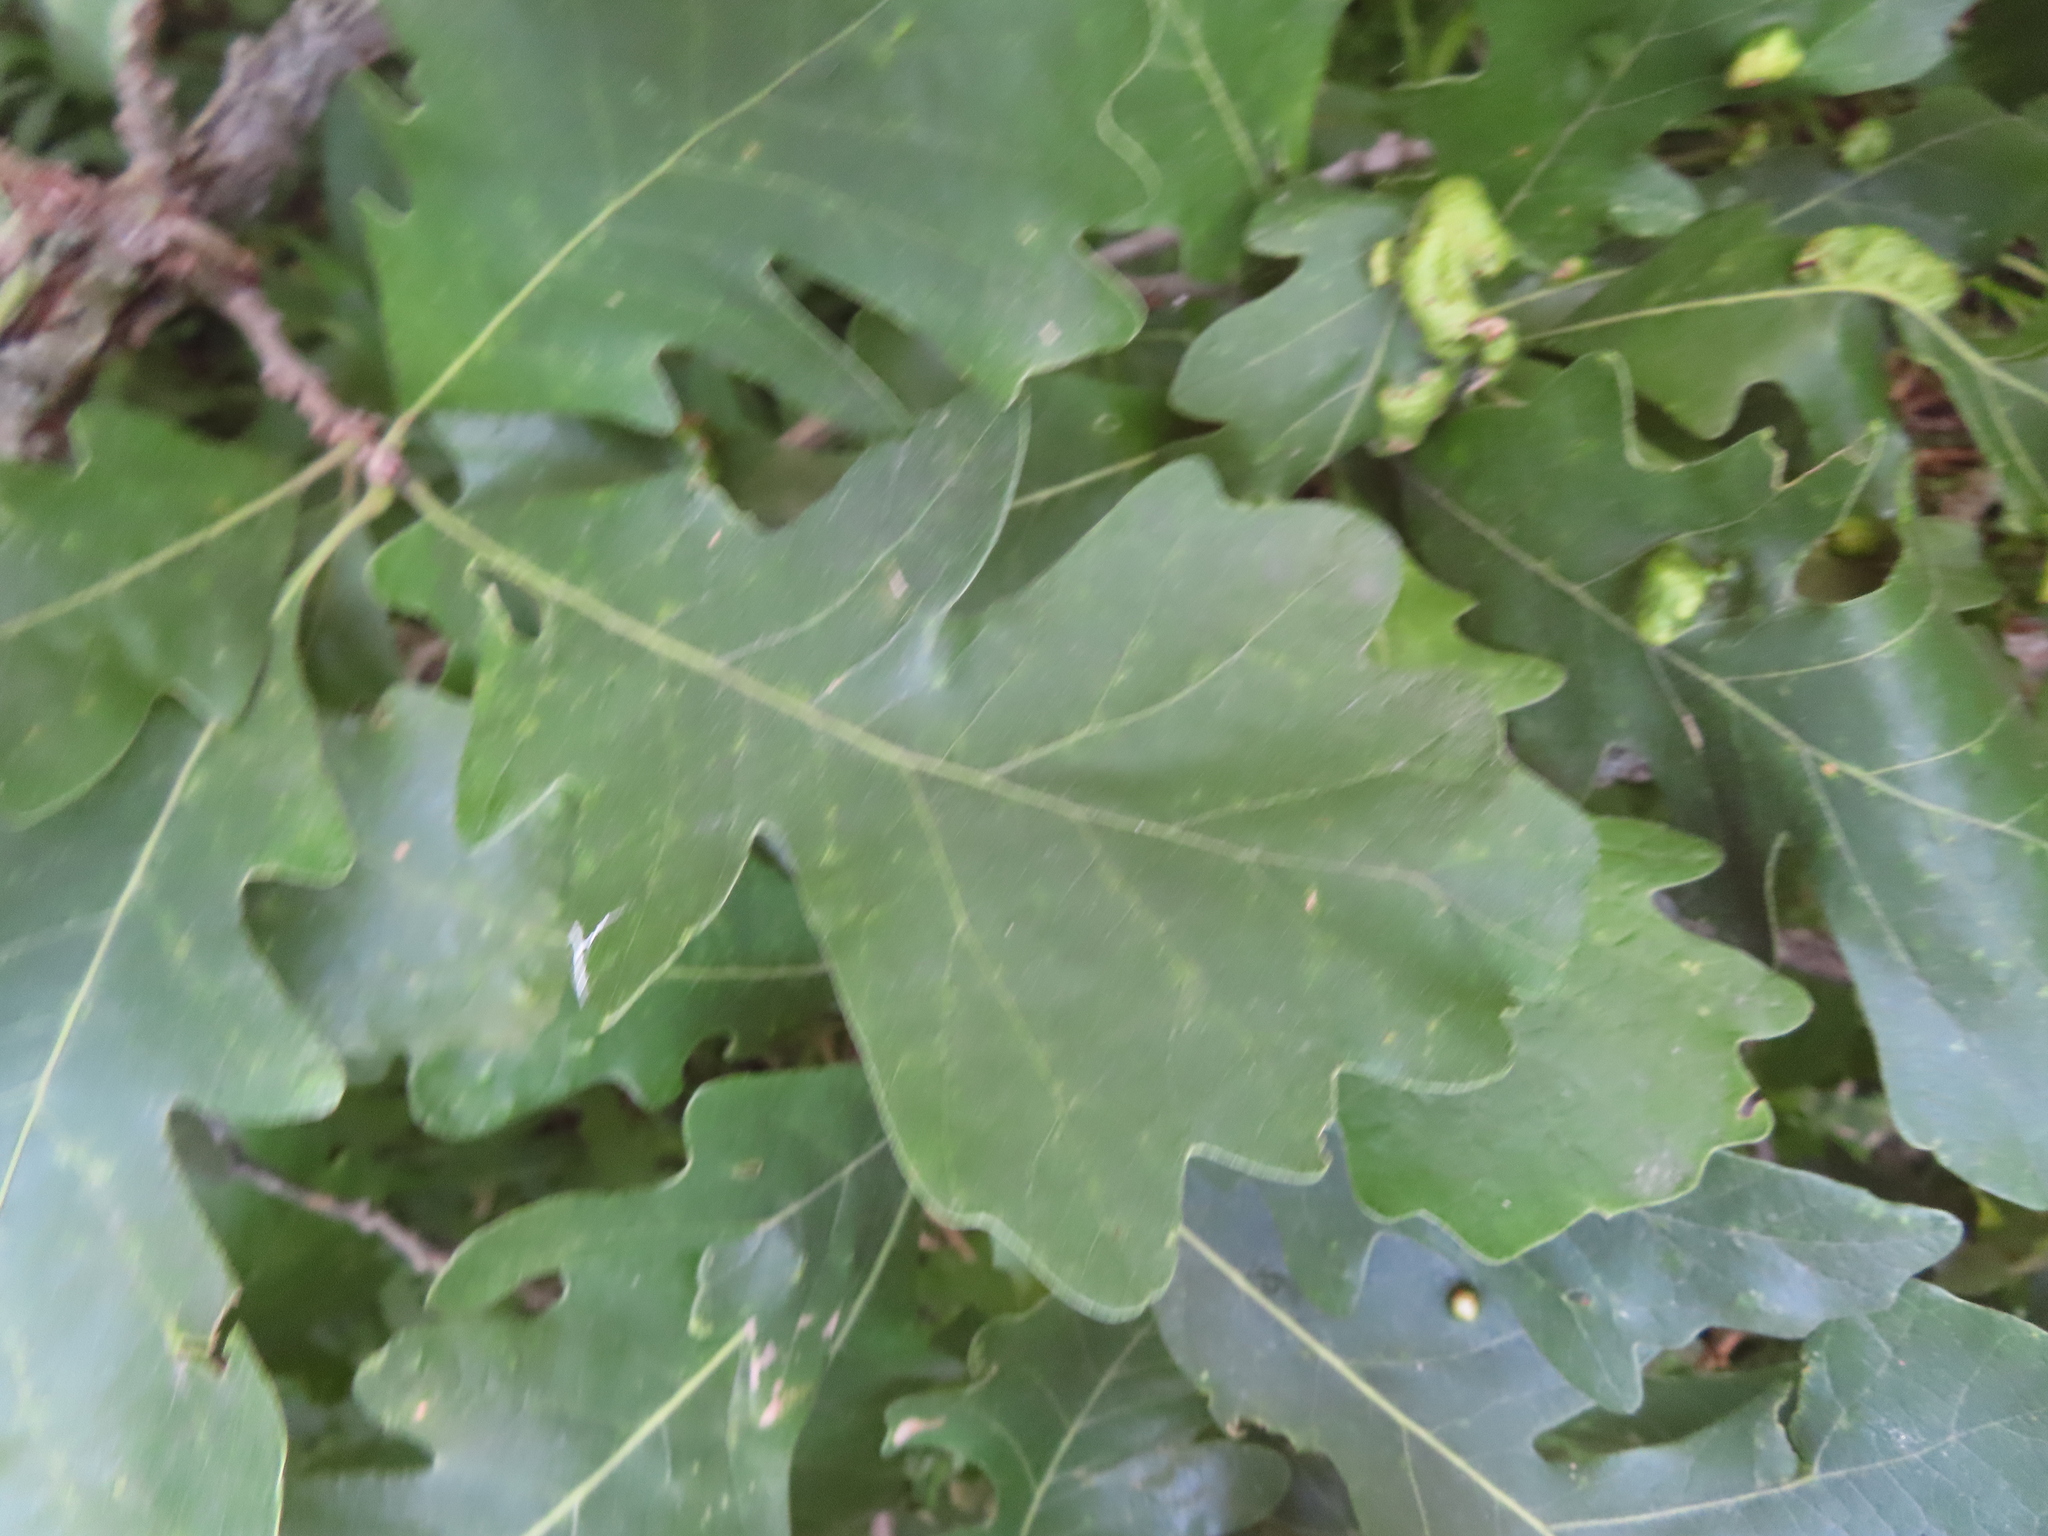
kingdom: Animalia
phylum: Arthropoda
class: Arachnida
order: Trombidiformes
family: Eriophyidae
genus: Aceria
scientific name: Aceria quercina
